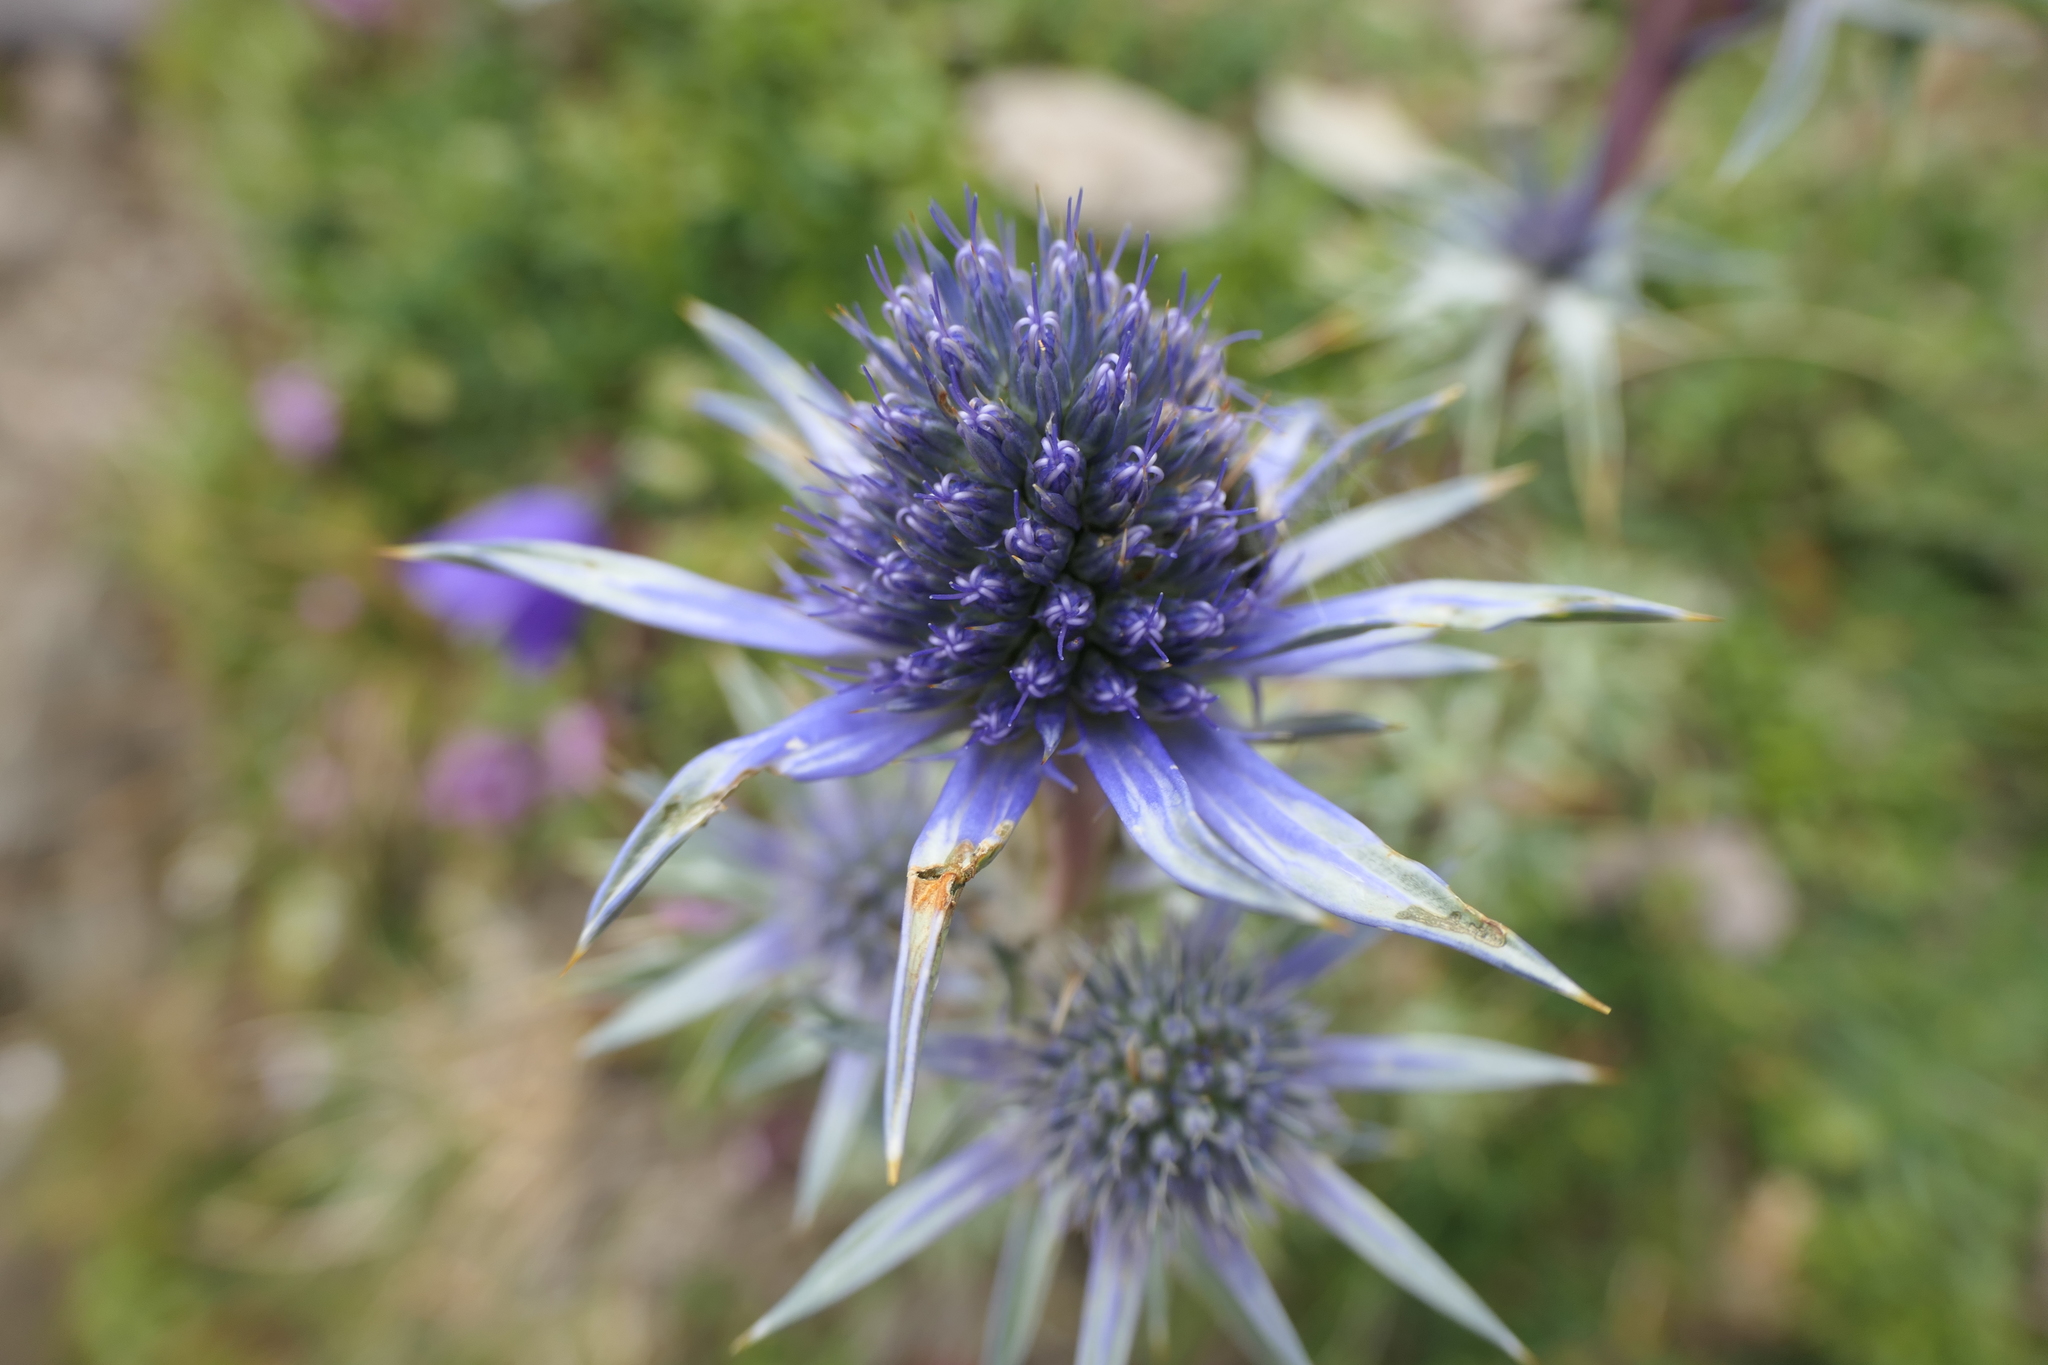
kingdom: Plantae
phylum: Tracheophyta
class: Magnoliopsida
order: Apiales
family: Apiaceae
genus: Eryngium
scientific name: Eryngium bourgatii
